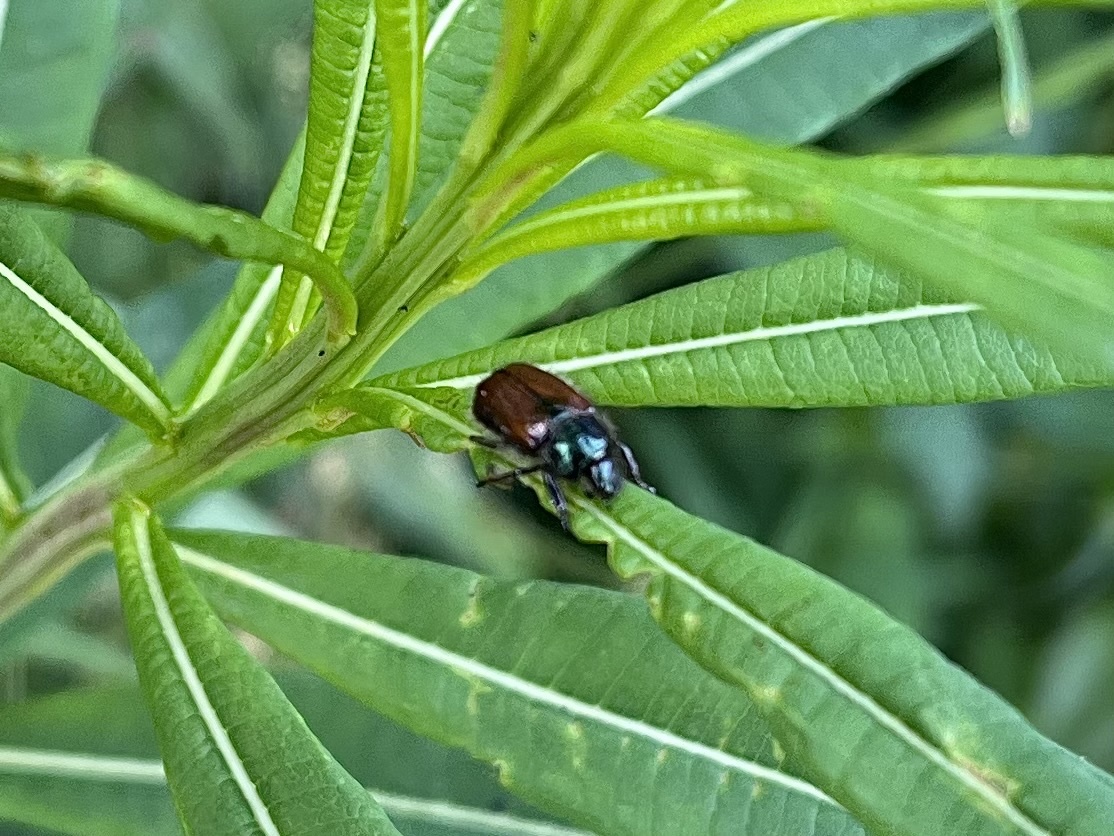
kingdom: Animalia
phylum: Arthropoda
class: Insecta
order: Coleoptera
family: Scarabaeidae
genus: Phyllopertha
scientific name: Phyllopertha horticola
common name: Garden chafer
